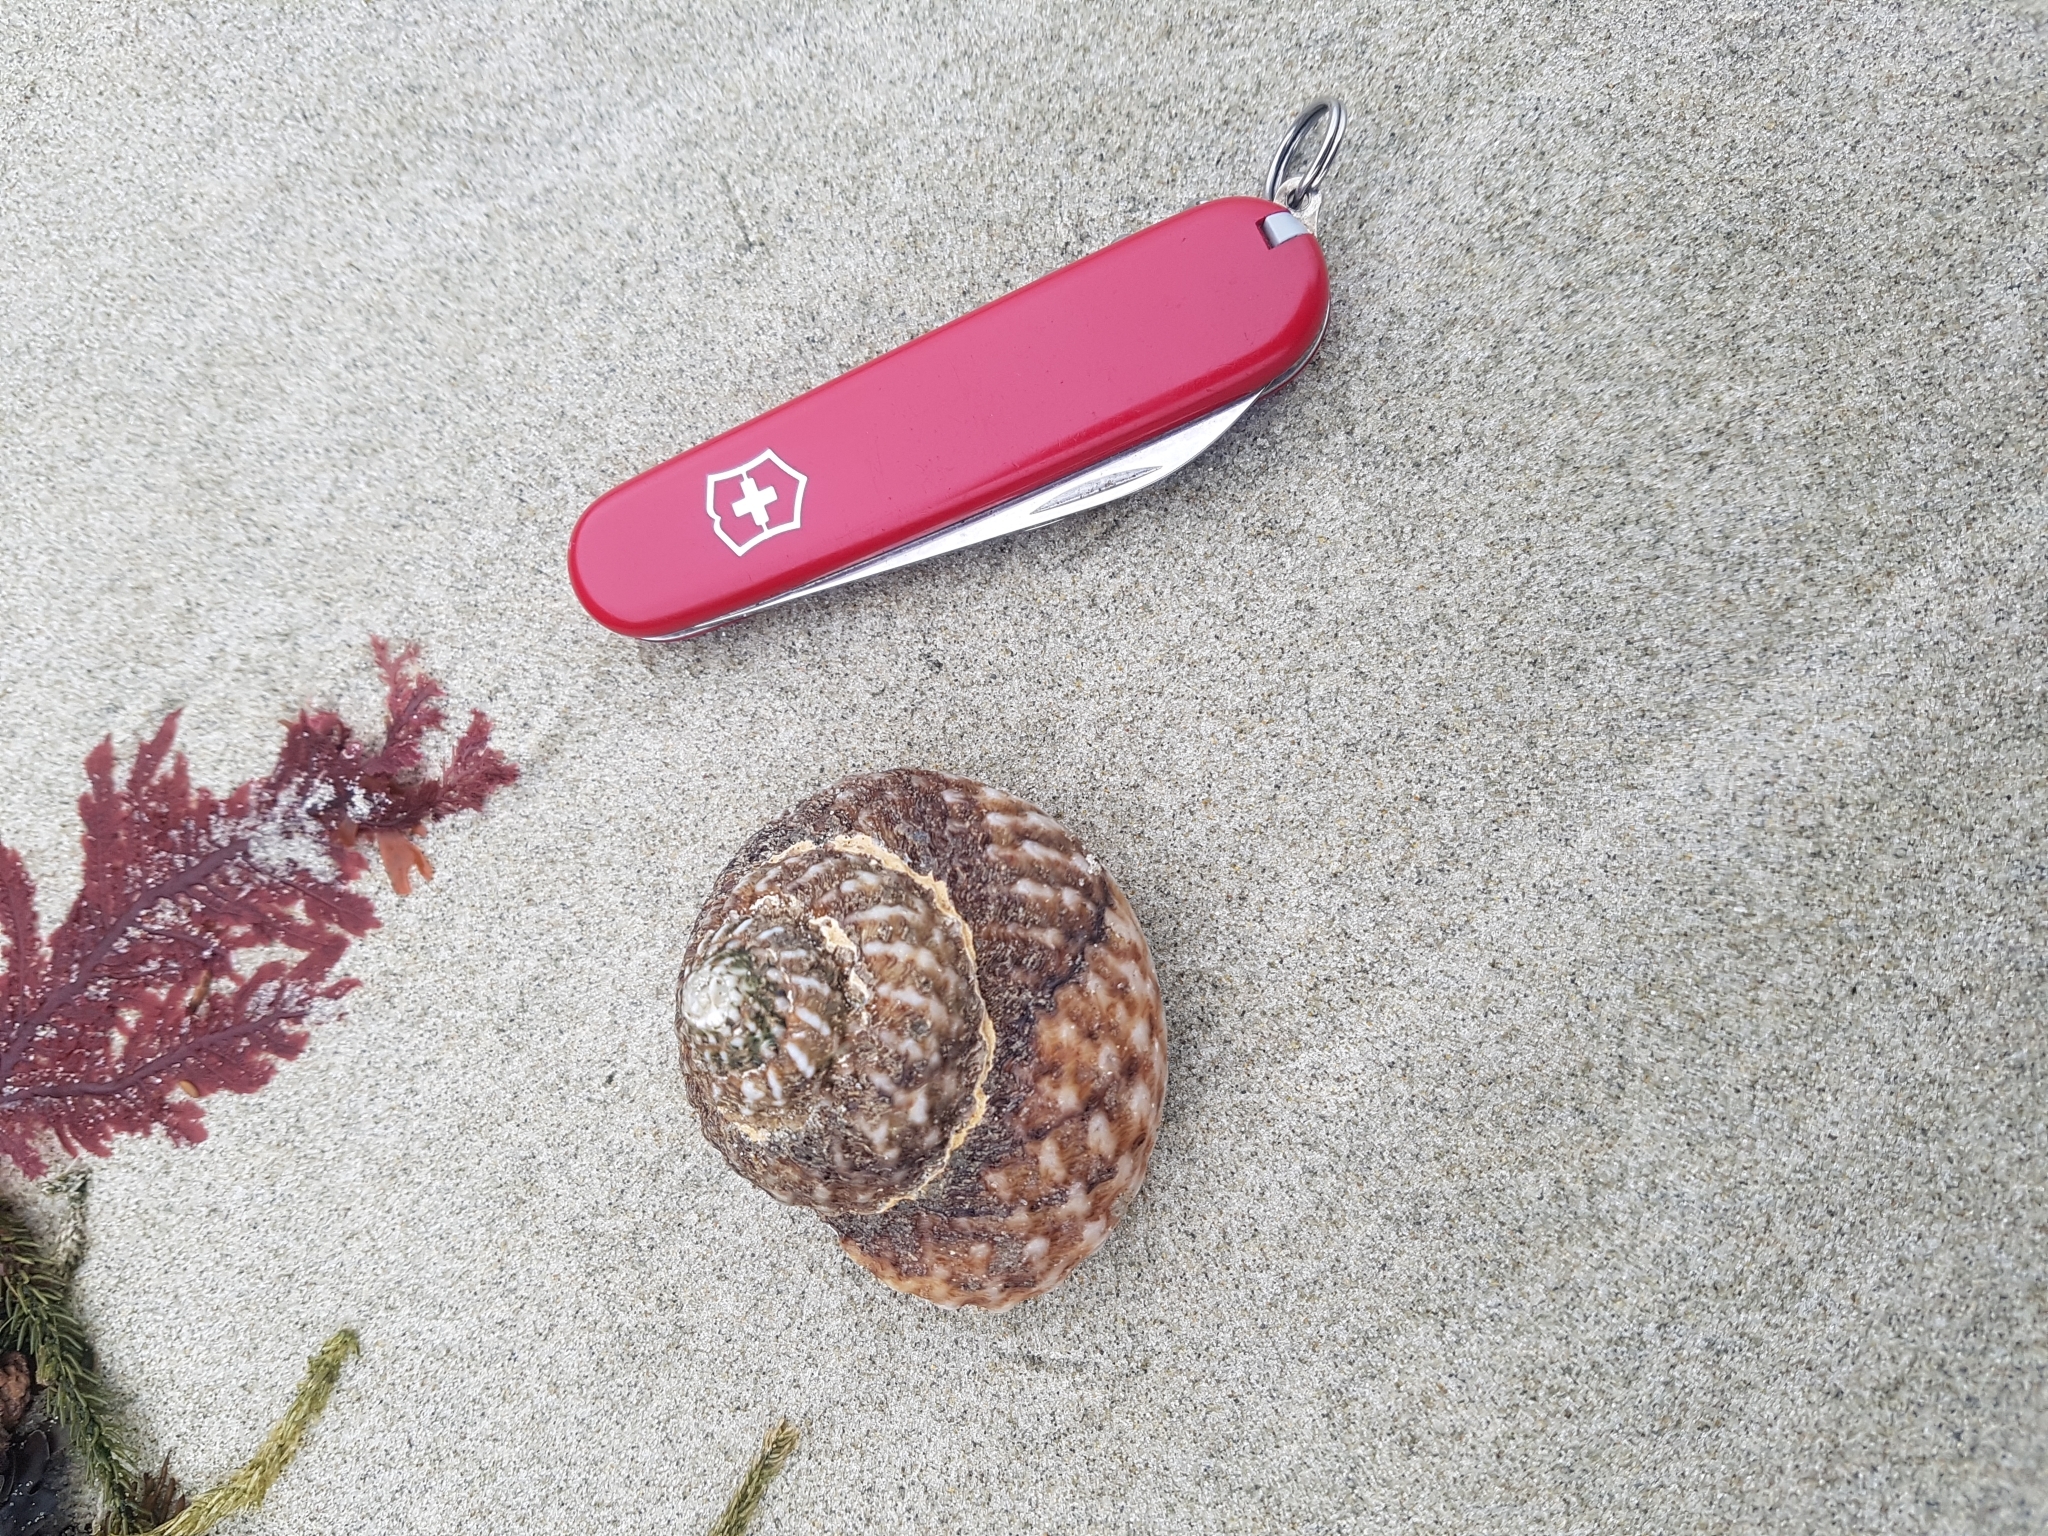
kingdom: Animalia
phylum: Mollusca
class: Gastropoda
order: Trochida
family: Turbinidae
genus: Cookia
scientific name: Cookia sulcata
